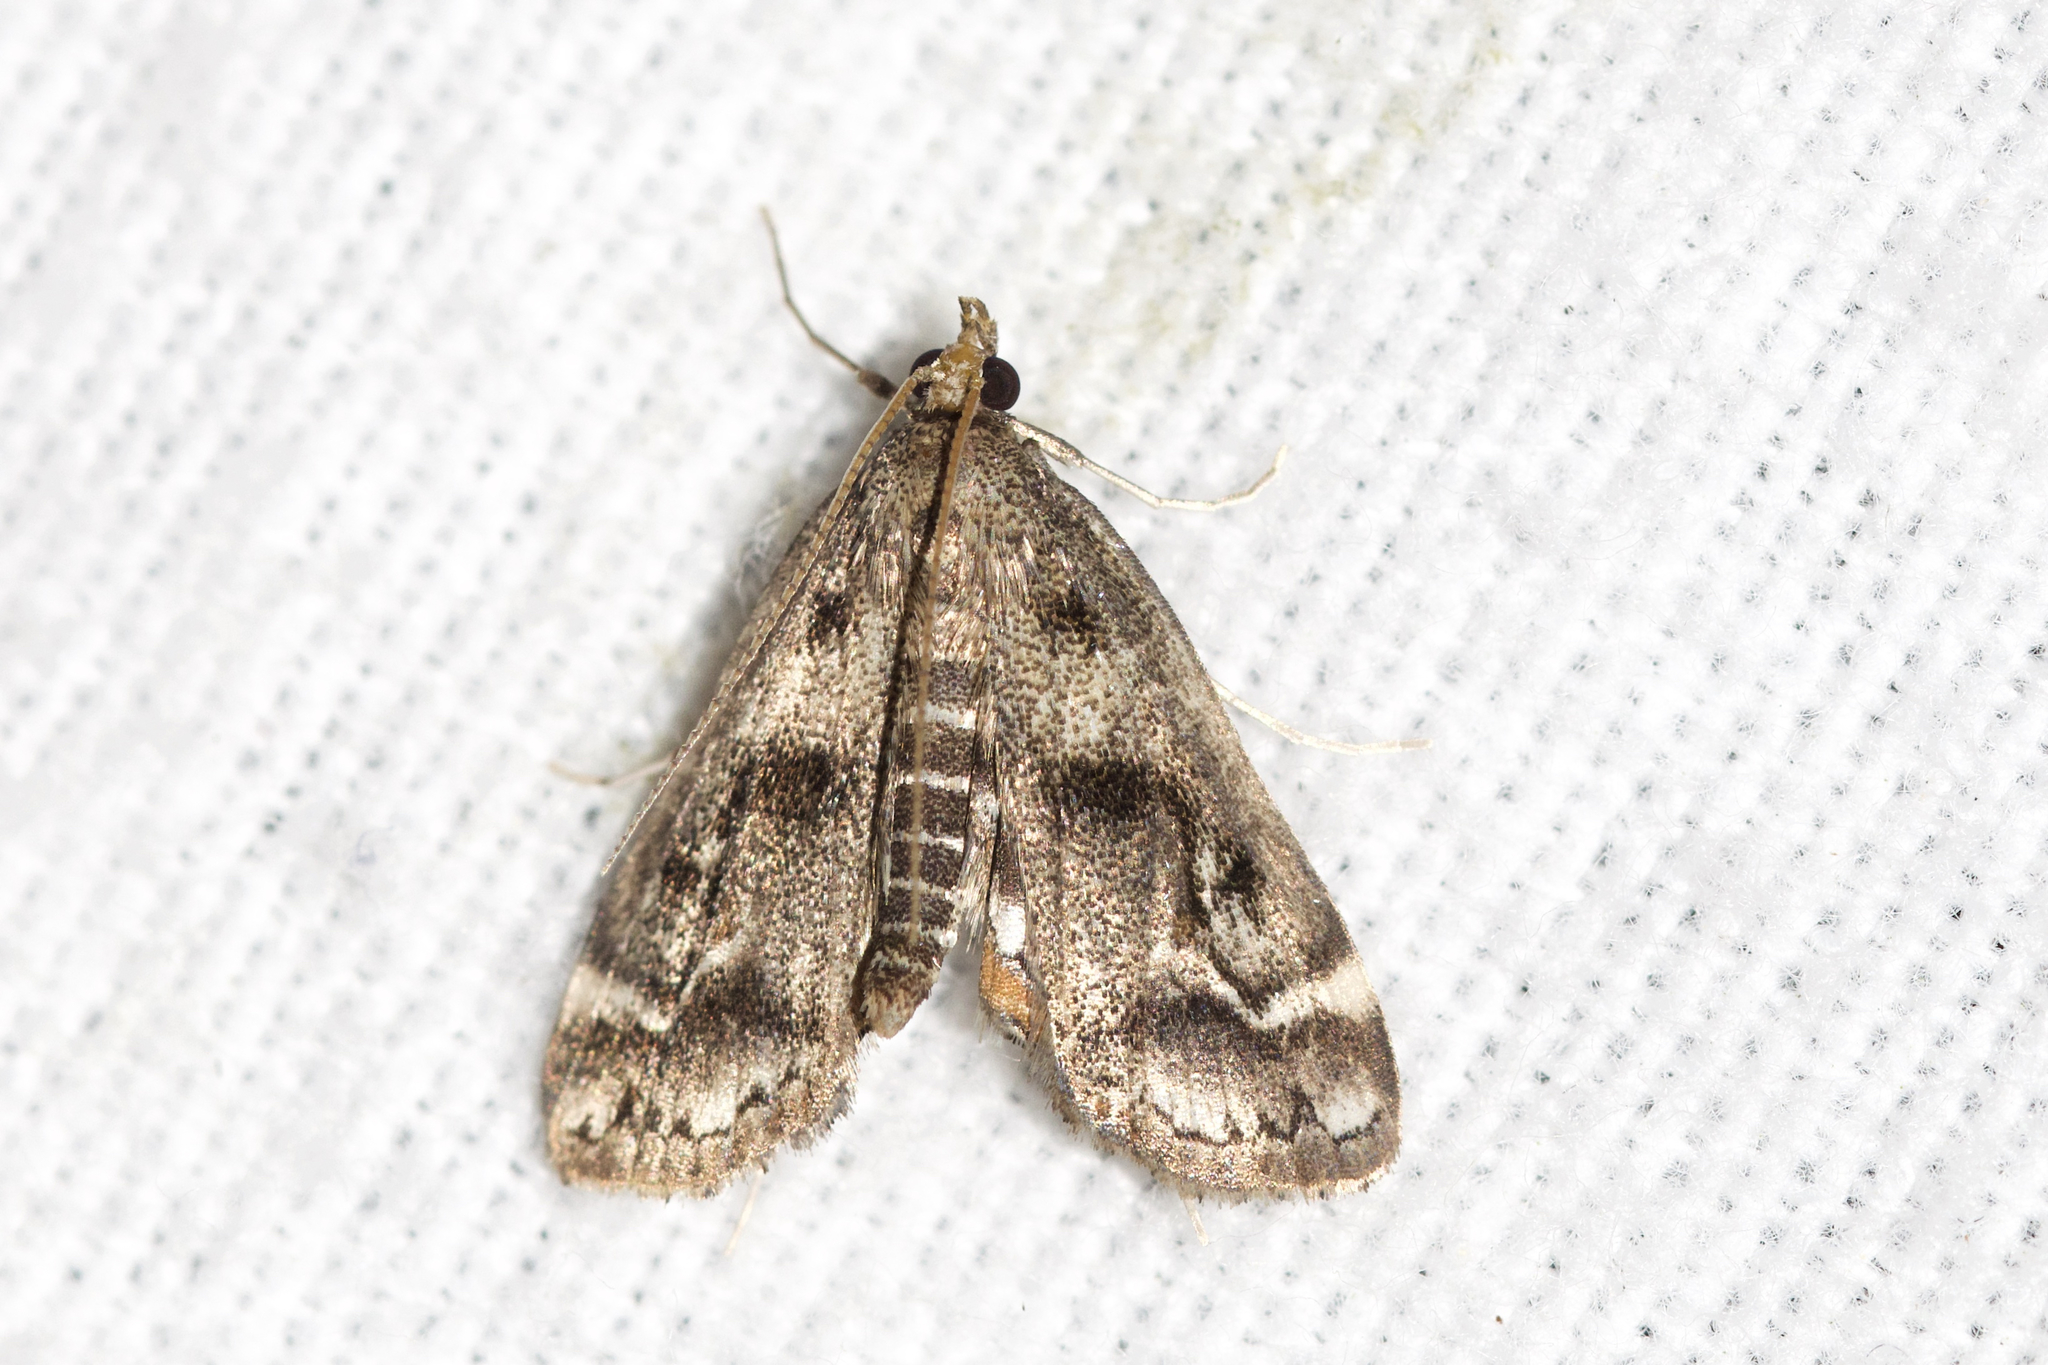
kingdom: Animalia
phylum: Arthropoda
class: Insecta
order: Lepidoptera
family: Crambidae
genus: Parapoynx
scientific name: Parapoynx obscuralis
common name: American china-mark
